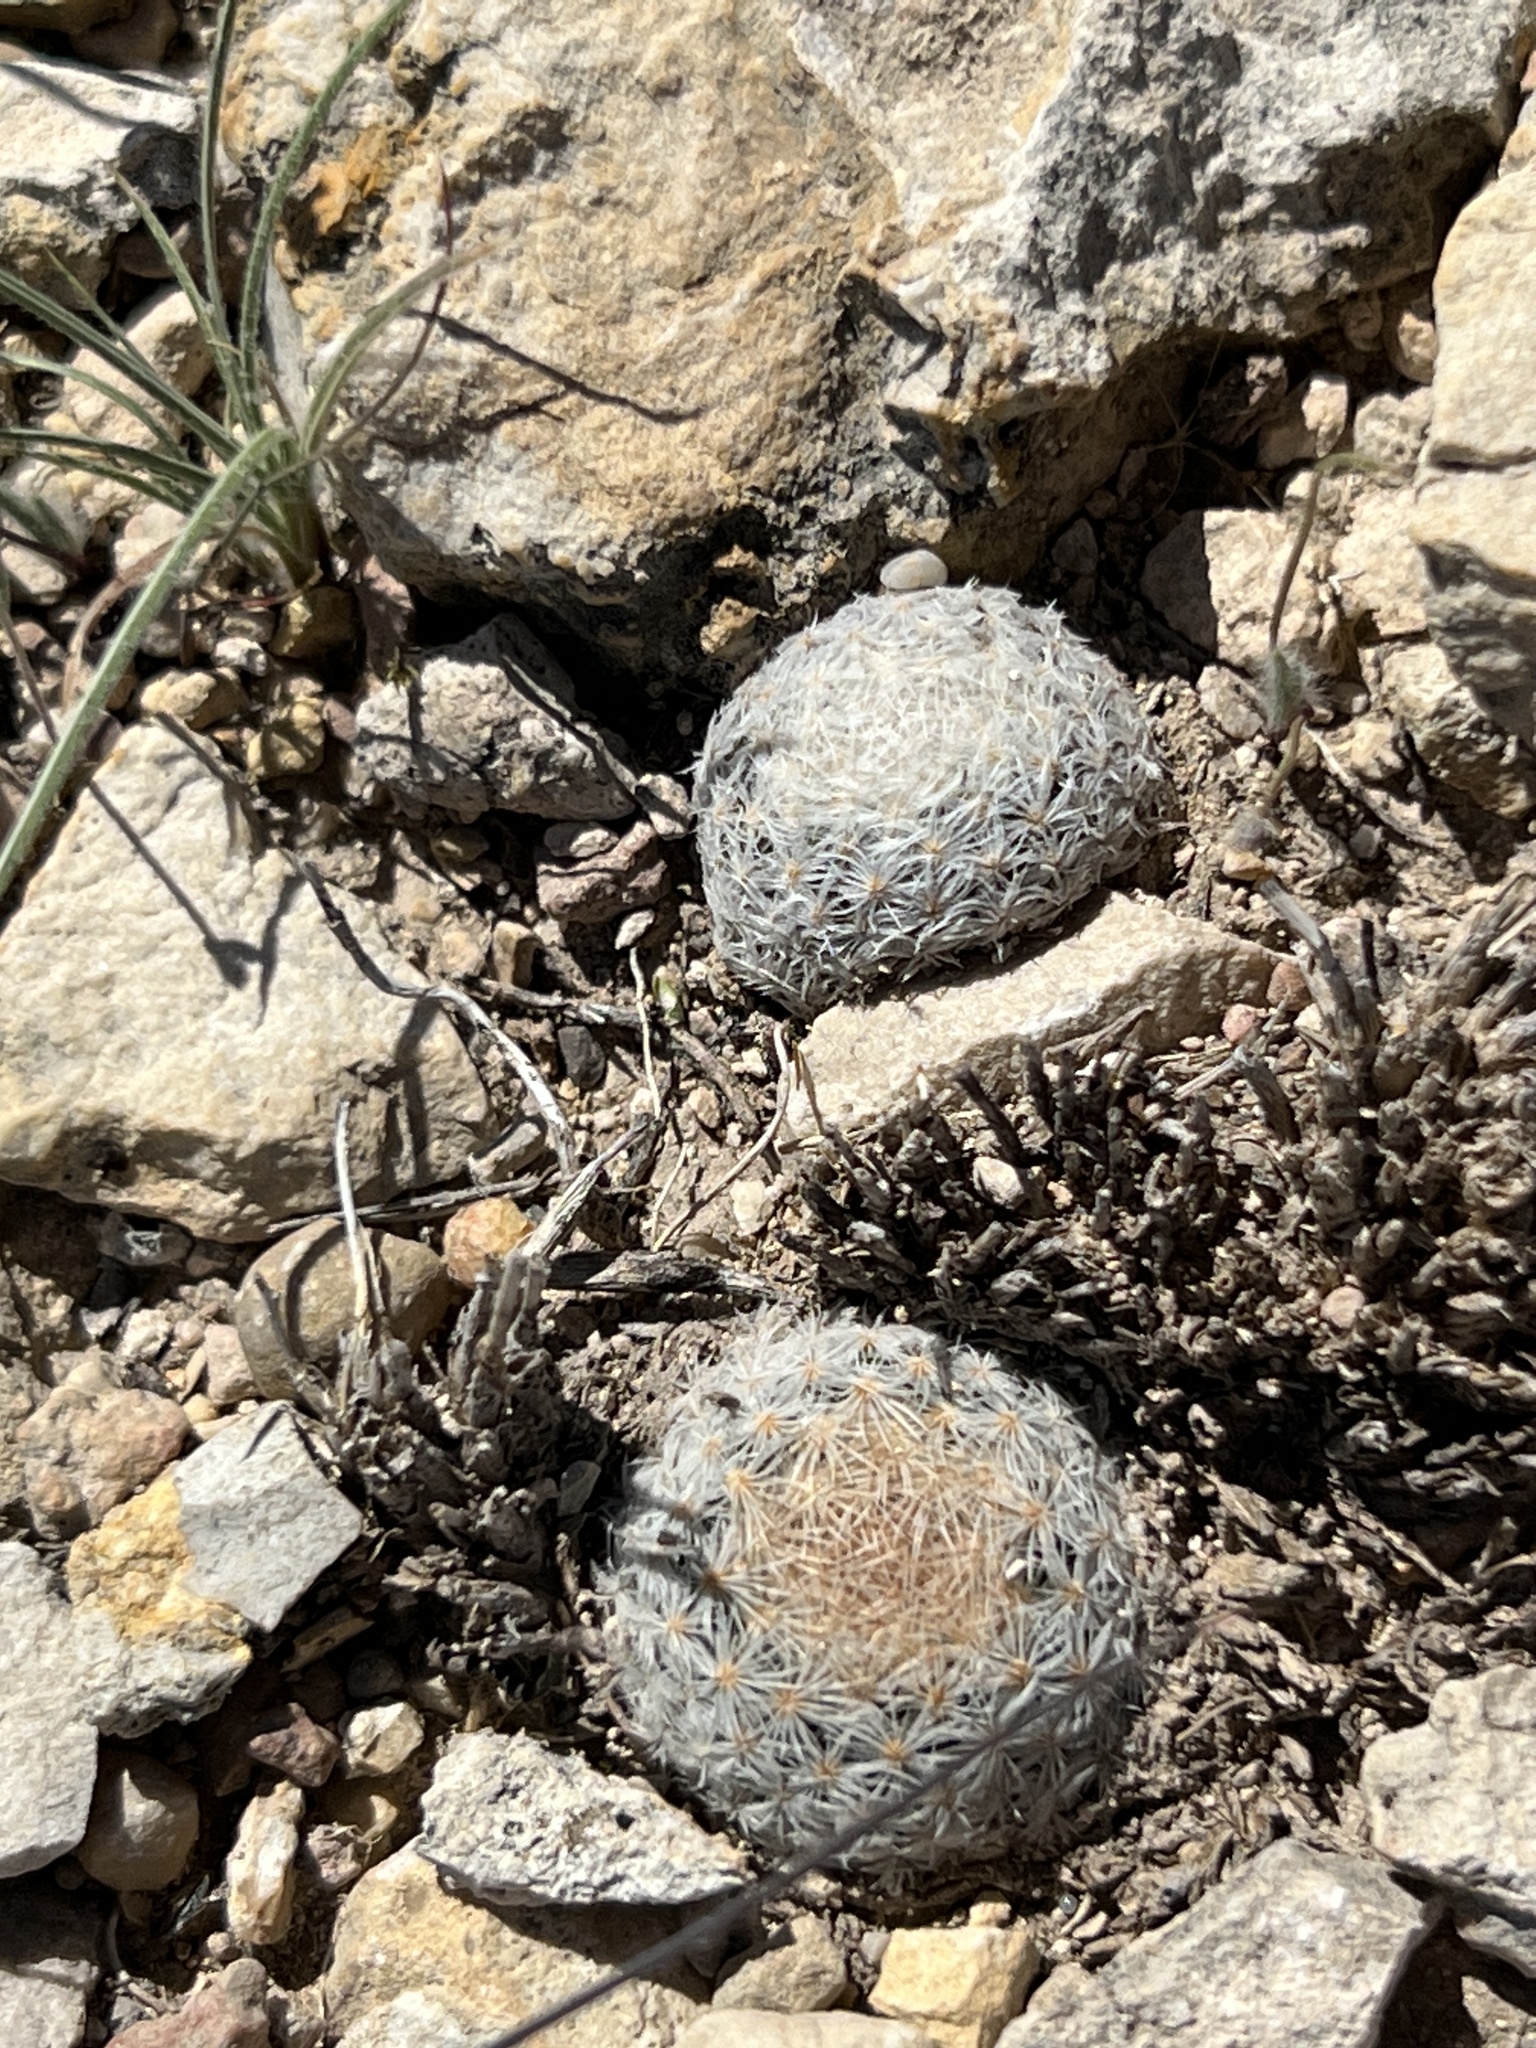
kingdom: Plantae
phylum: Tracheophyta
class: Magnoliopsida
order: Caryophyllales
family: Cactaceae
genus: Mammillaria
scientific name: Mammillaria lasiacantha
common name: Lace-spine nipple cactus
